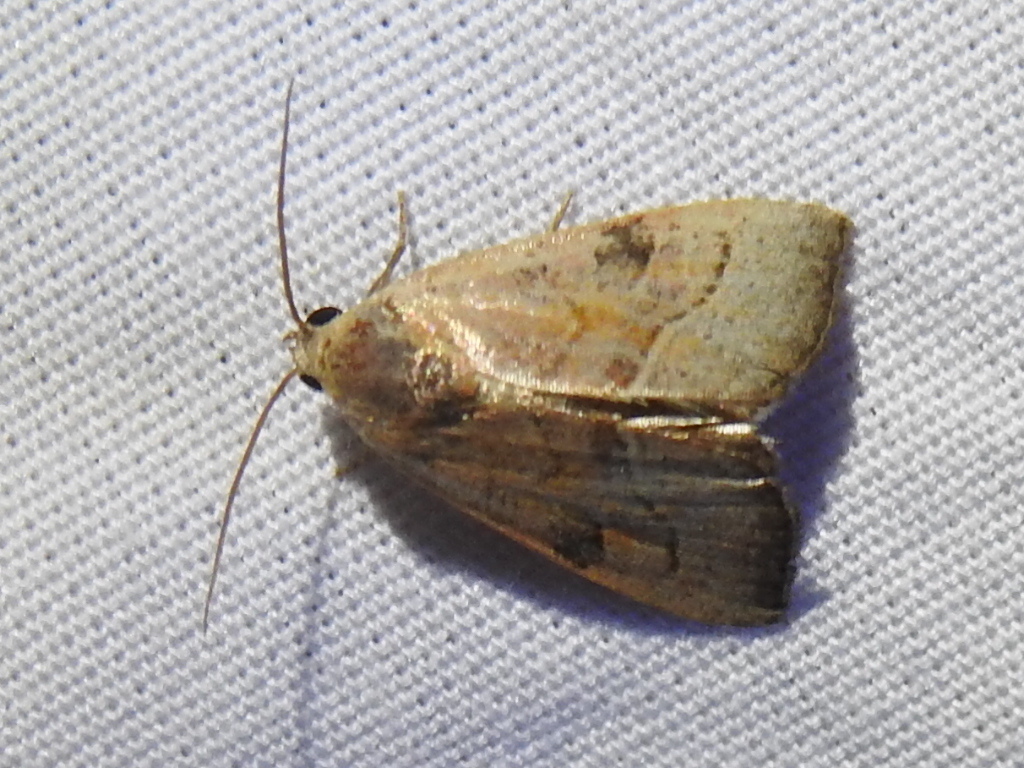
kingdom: Animalia
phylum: Arthropoda
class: Insecta
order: Lepidoptera
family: Noctuidae
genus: Galgula
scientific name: Galgula partita
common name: Wedgeling
